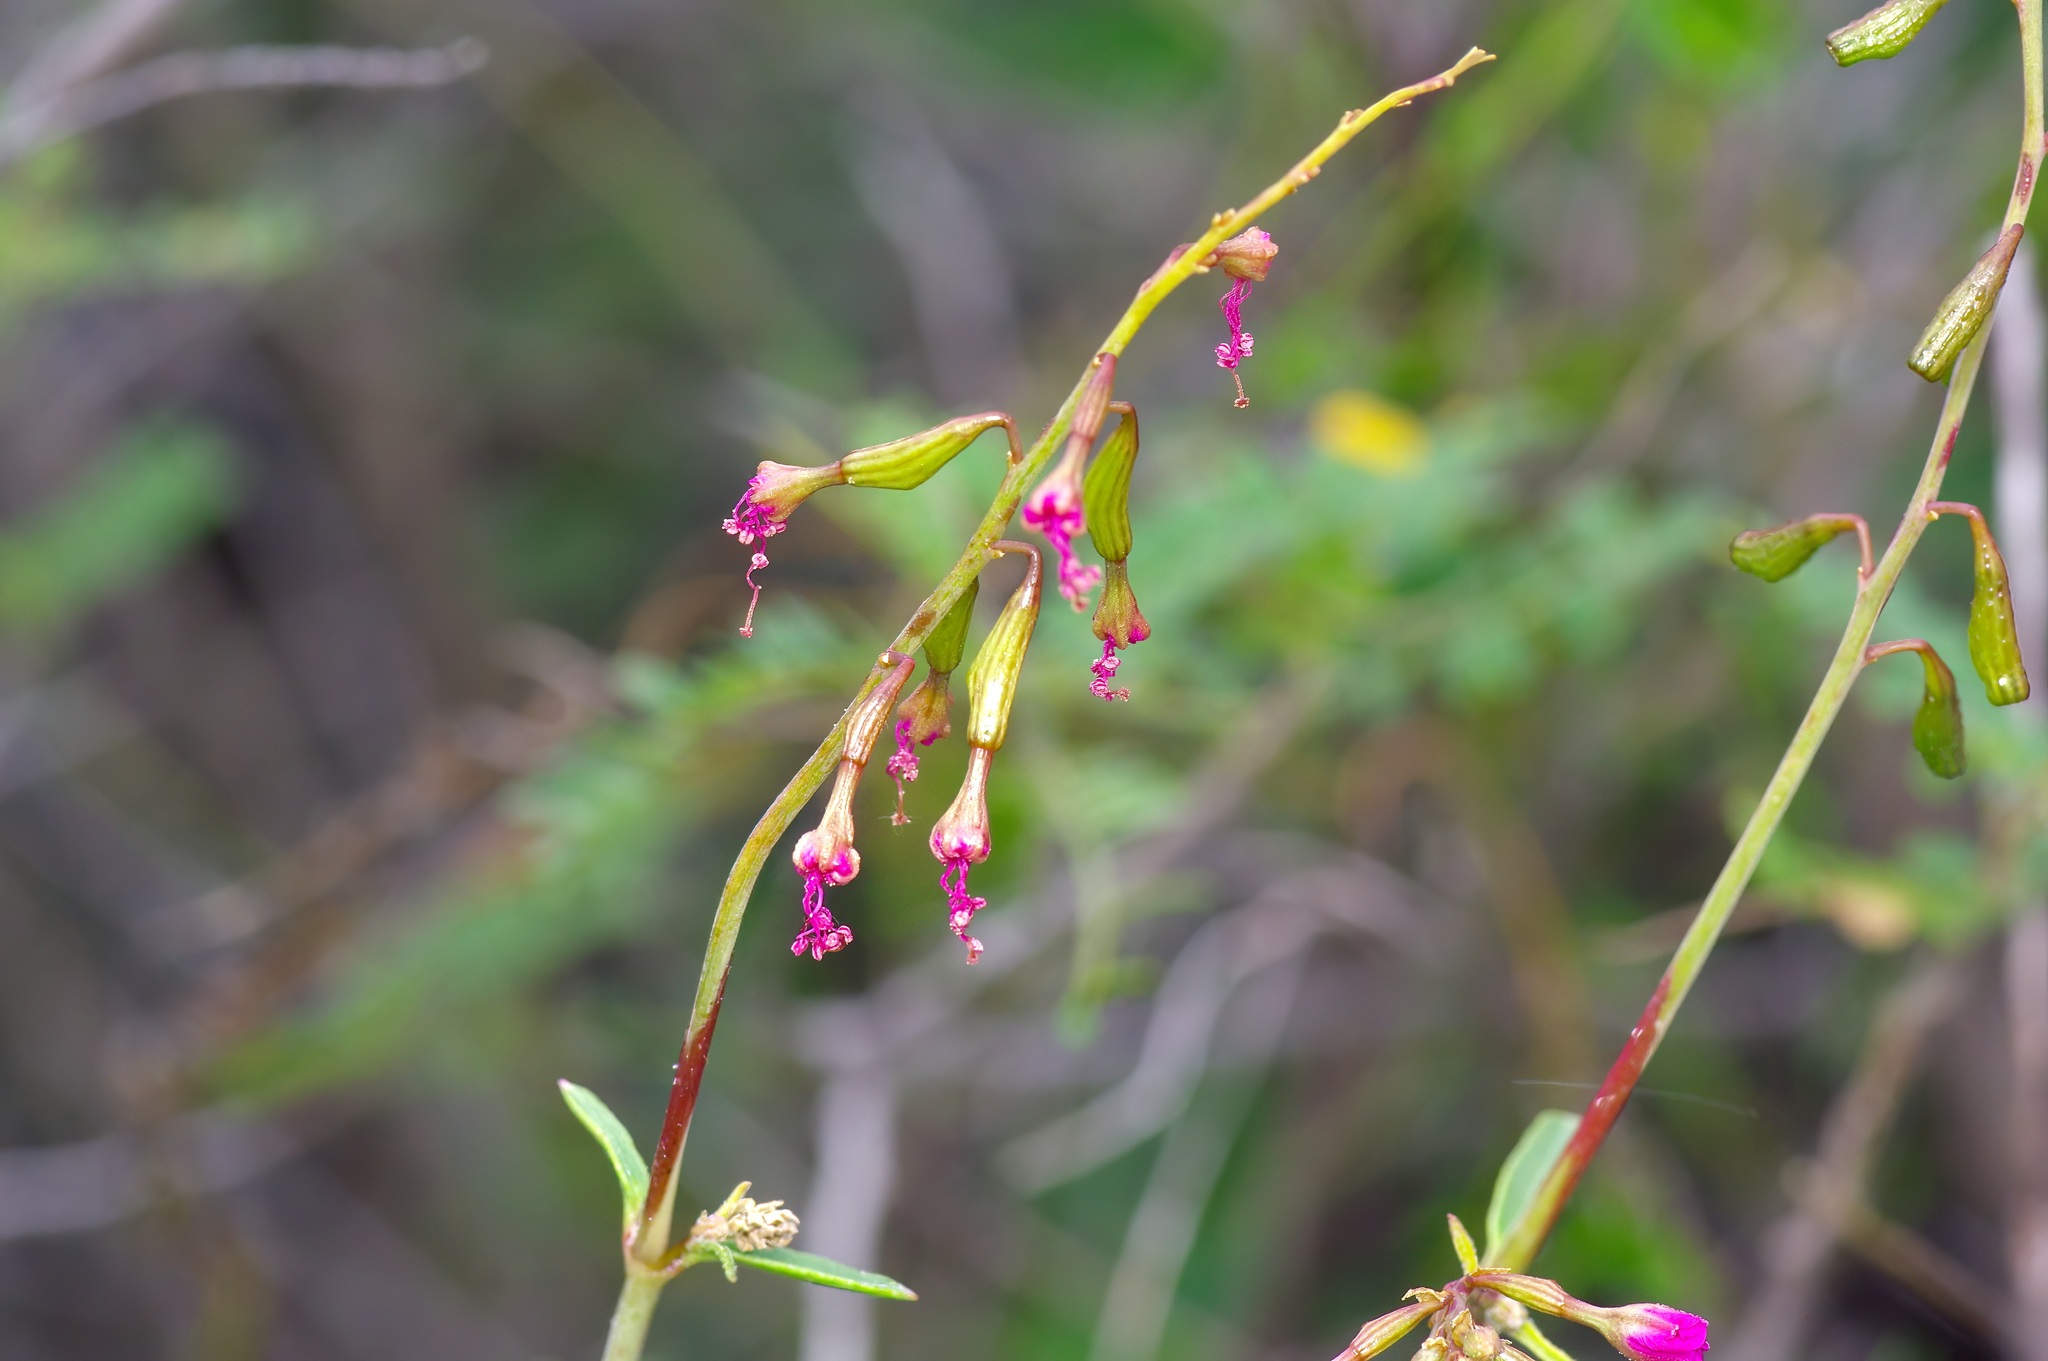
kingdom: Plantae
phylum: Tracheophyta
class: Magnoliopsida
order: Caryophyllales
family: Nyctaginaceae
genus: Cyphomeris
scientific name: Cyphomeris gypsophiloides
